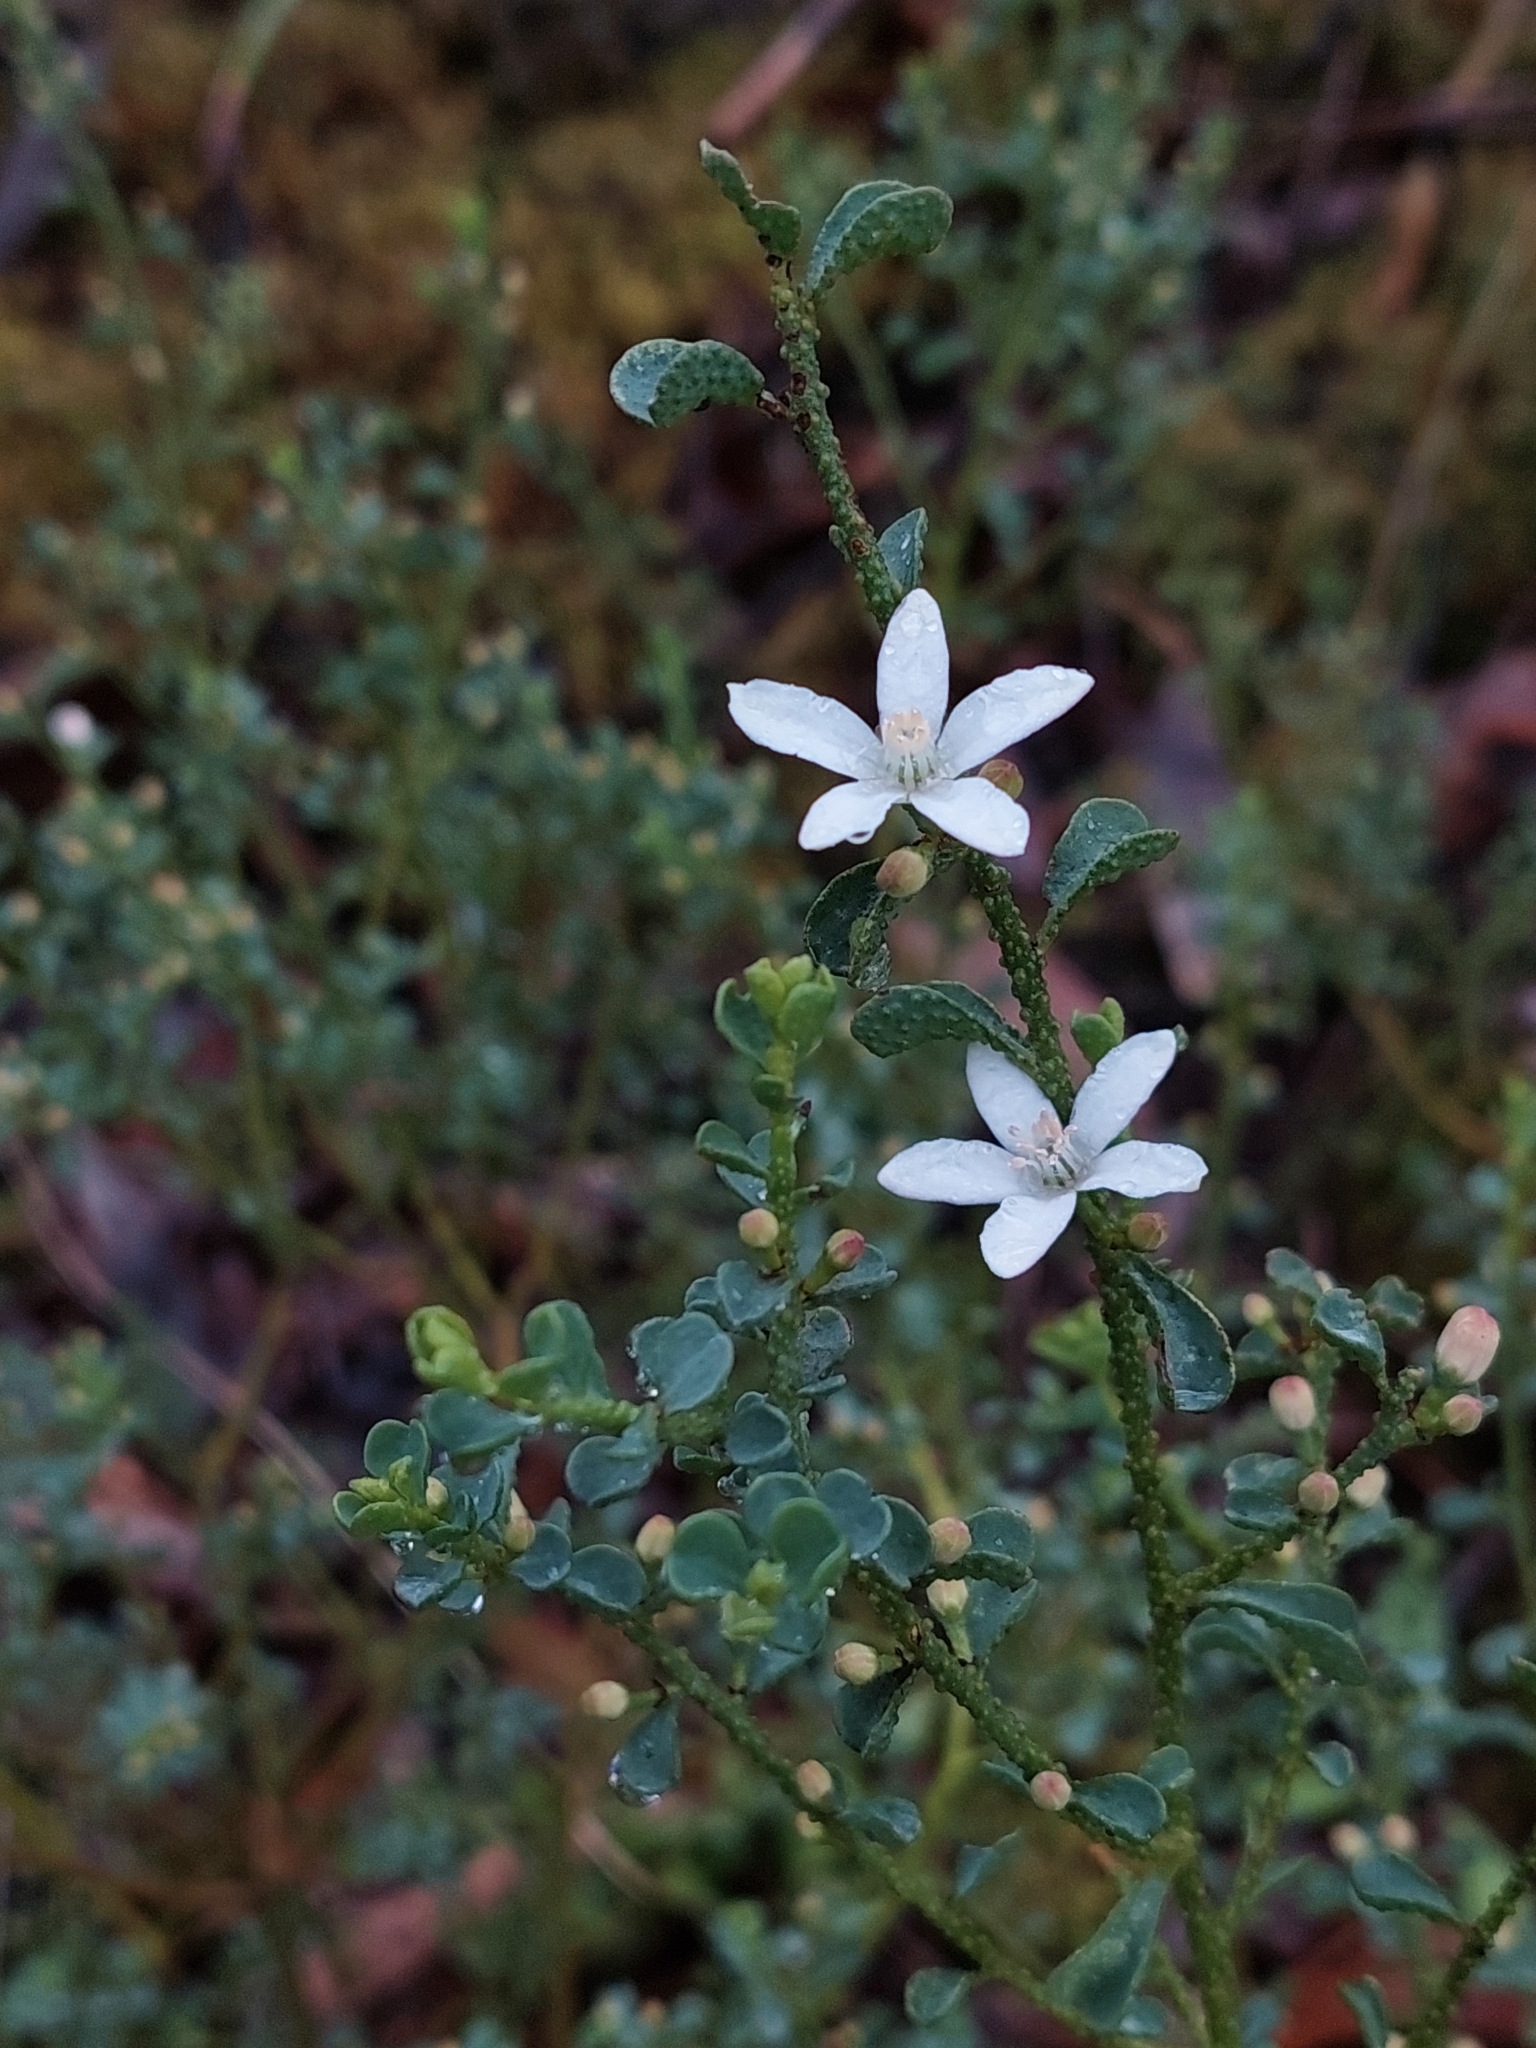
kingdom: Plantae
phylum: Tracheophyta
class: Magnoliopsida
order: Sapindales
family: Rutaceae
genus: Philotheca
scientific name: Philotheca verrucosa
